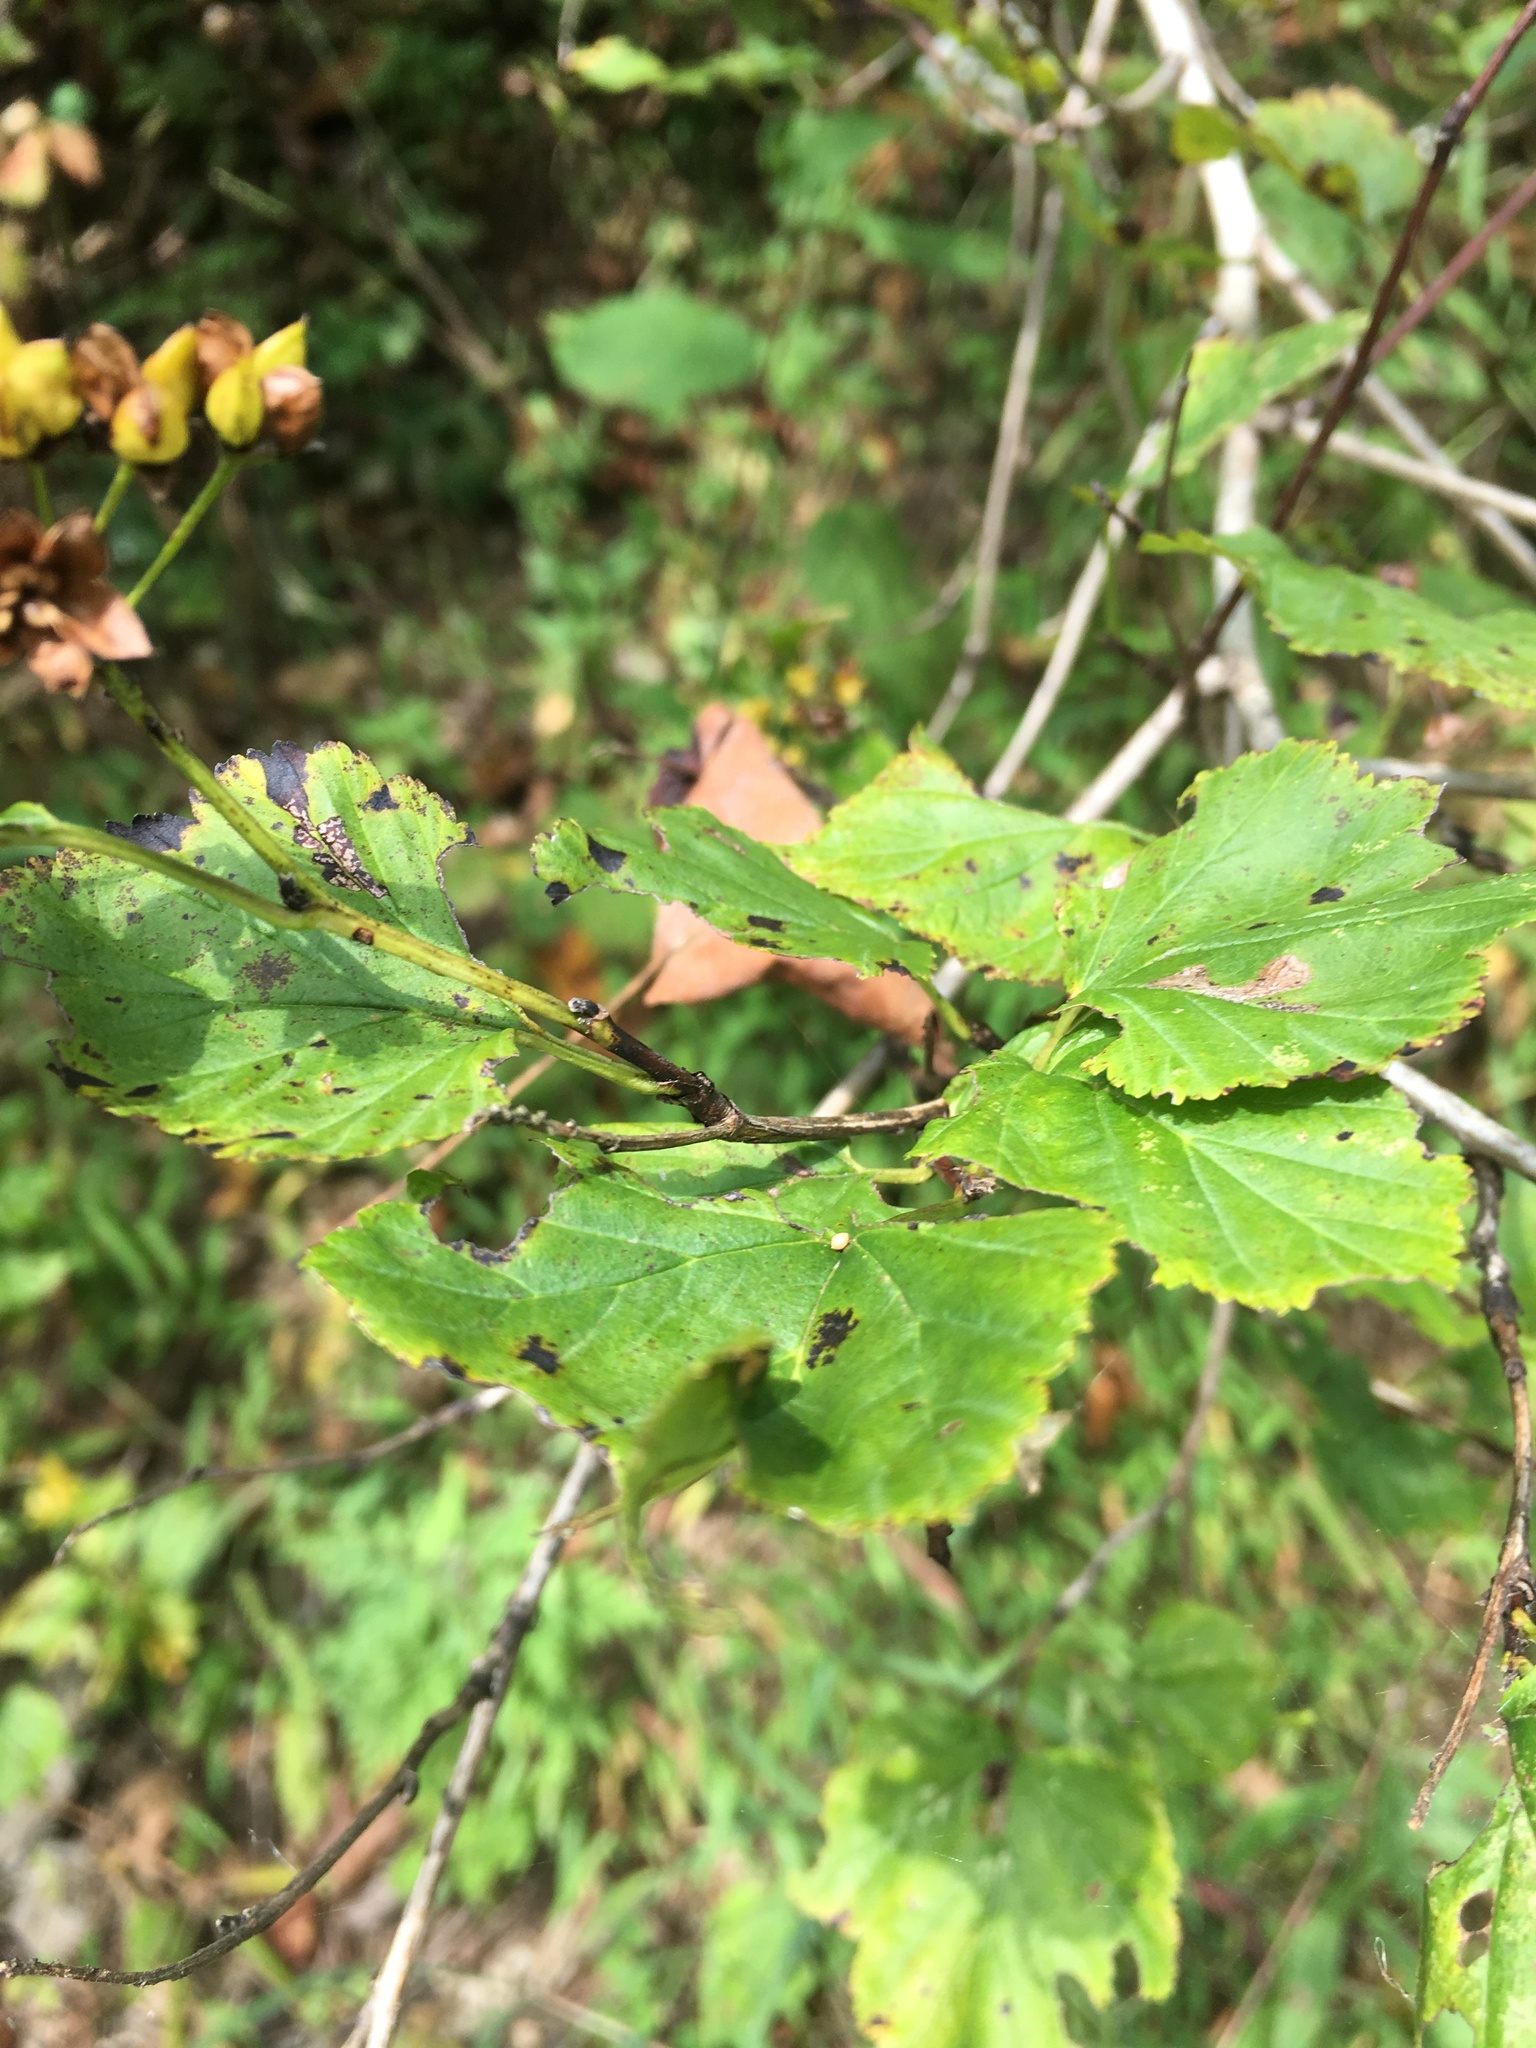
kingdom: Plantae
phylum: Tracheophyta
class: Magnoliopsida
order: Rosales
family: Rosaceae
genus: Physocarpus
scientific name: Physocarpus opulifolius
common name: Ninebark
